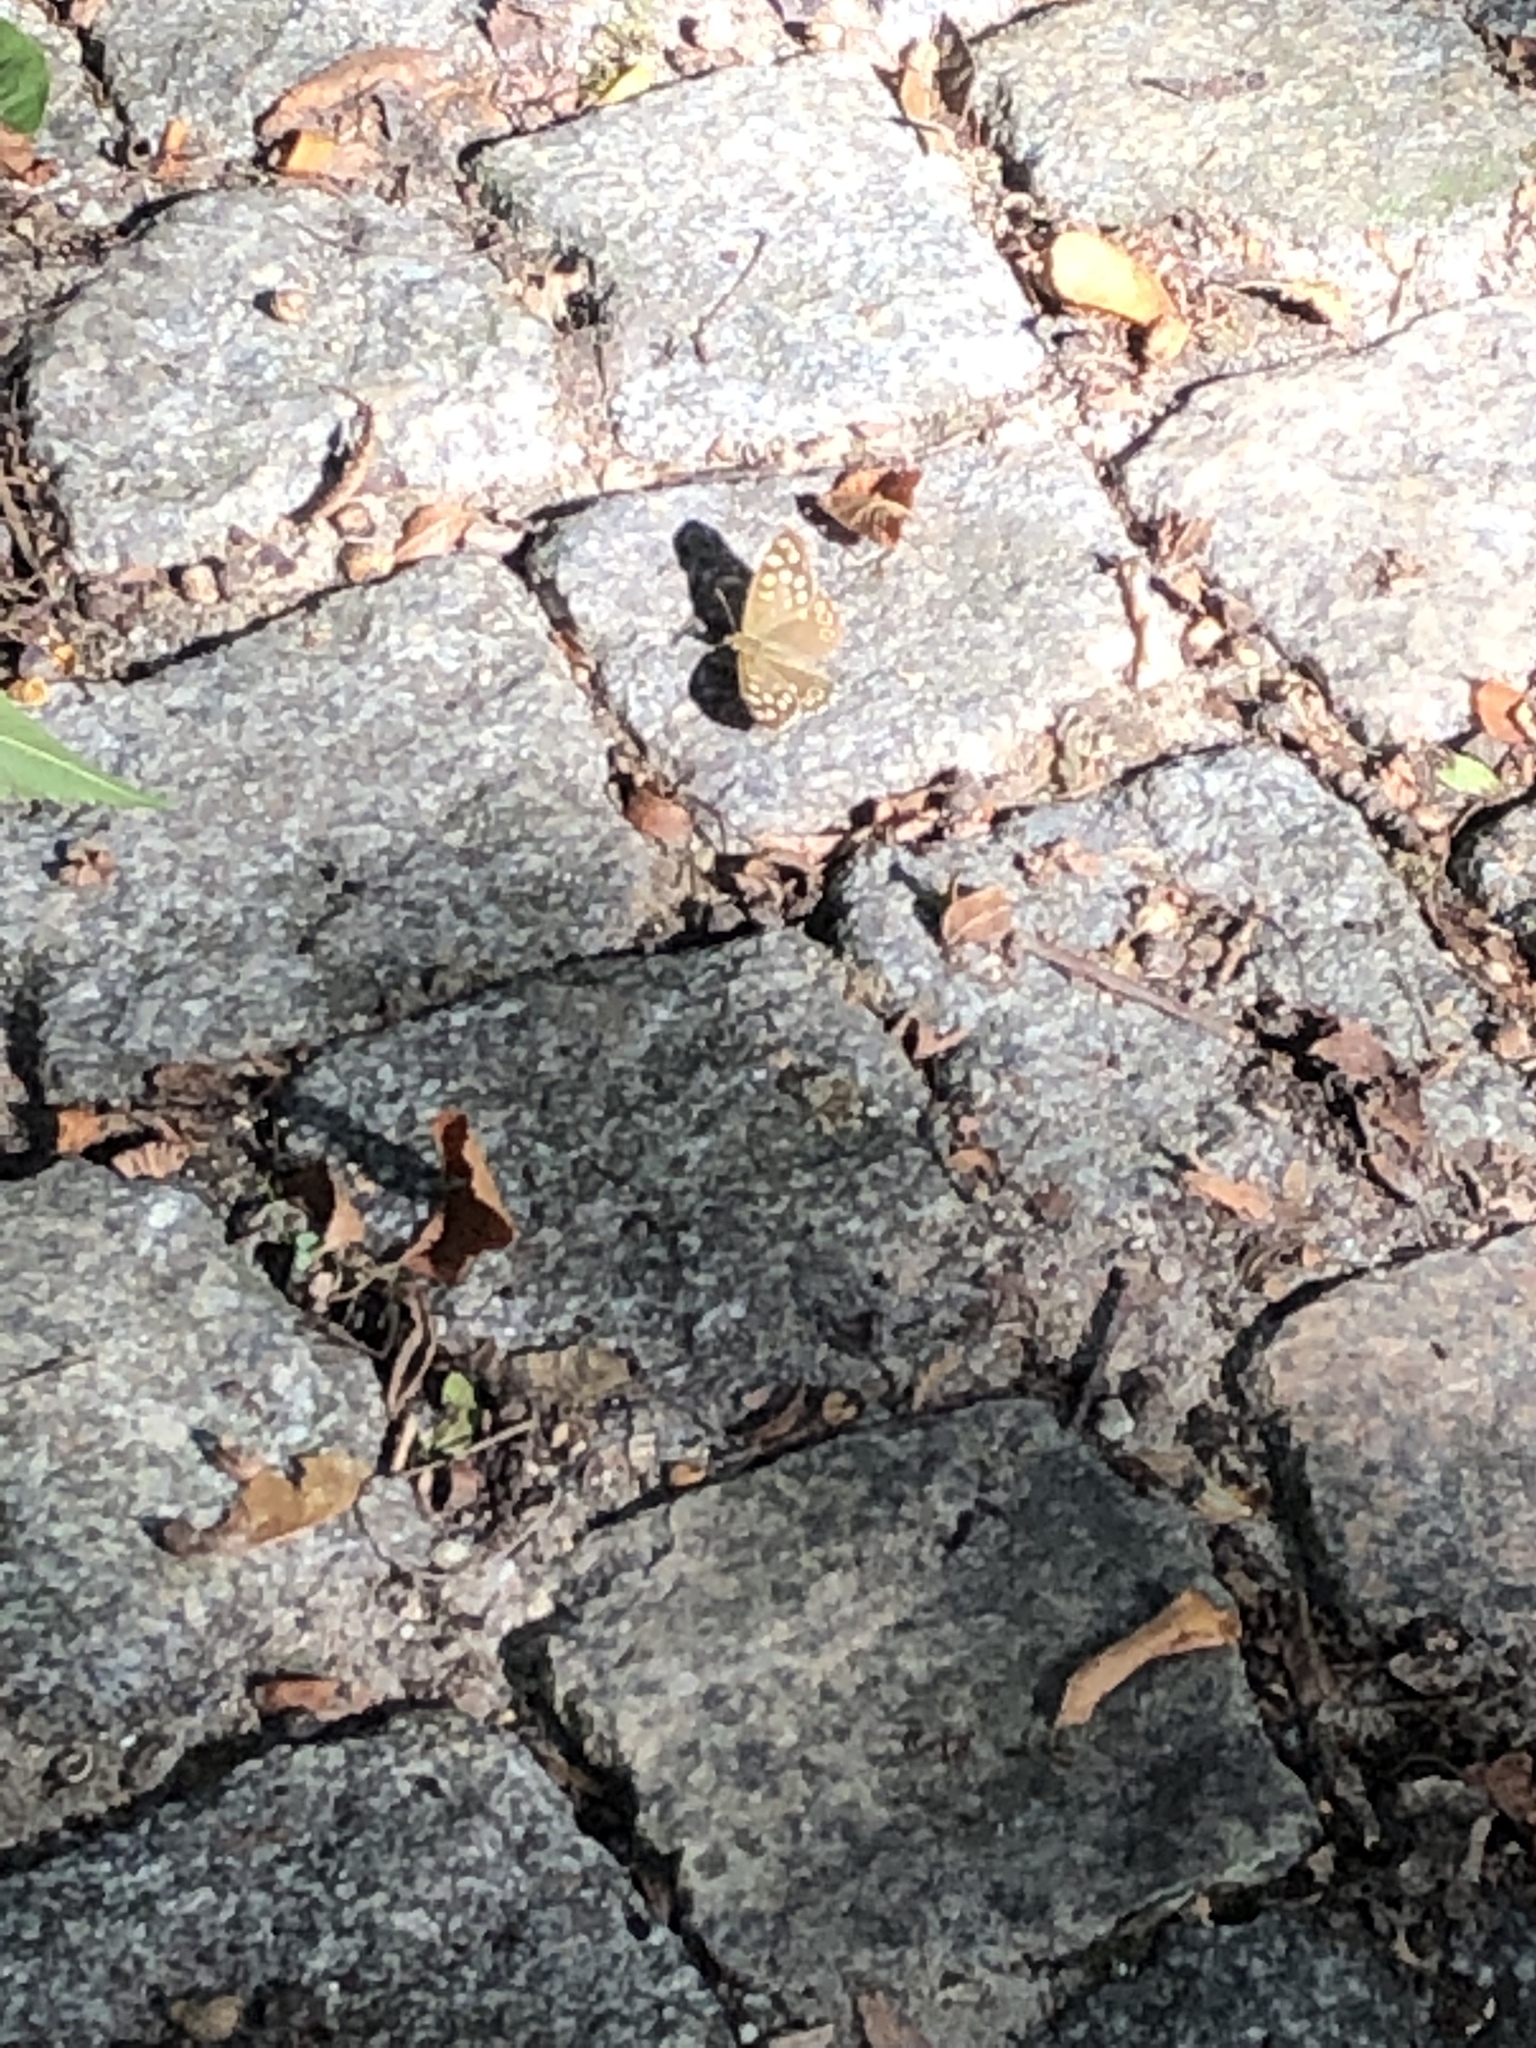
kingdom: Animalia
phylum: Arthropoda
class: Insecta
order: Lepidoptera
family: Nymphalidae
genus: Pararge
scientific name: Pararge aegeria
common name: Speckled wood
